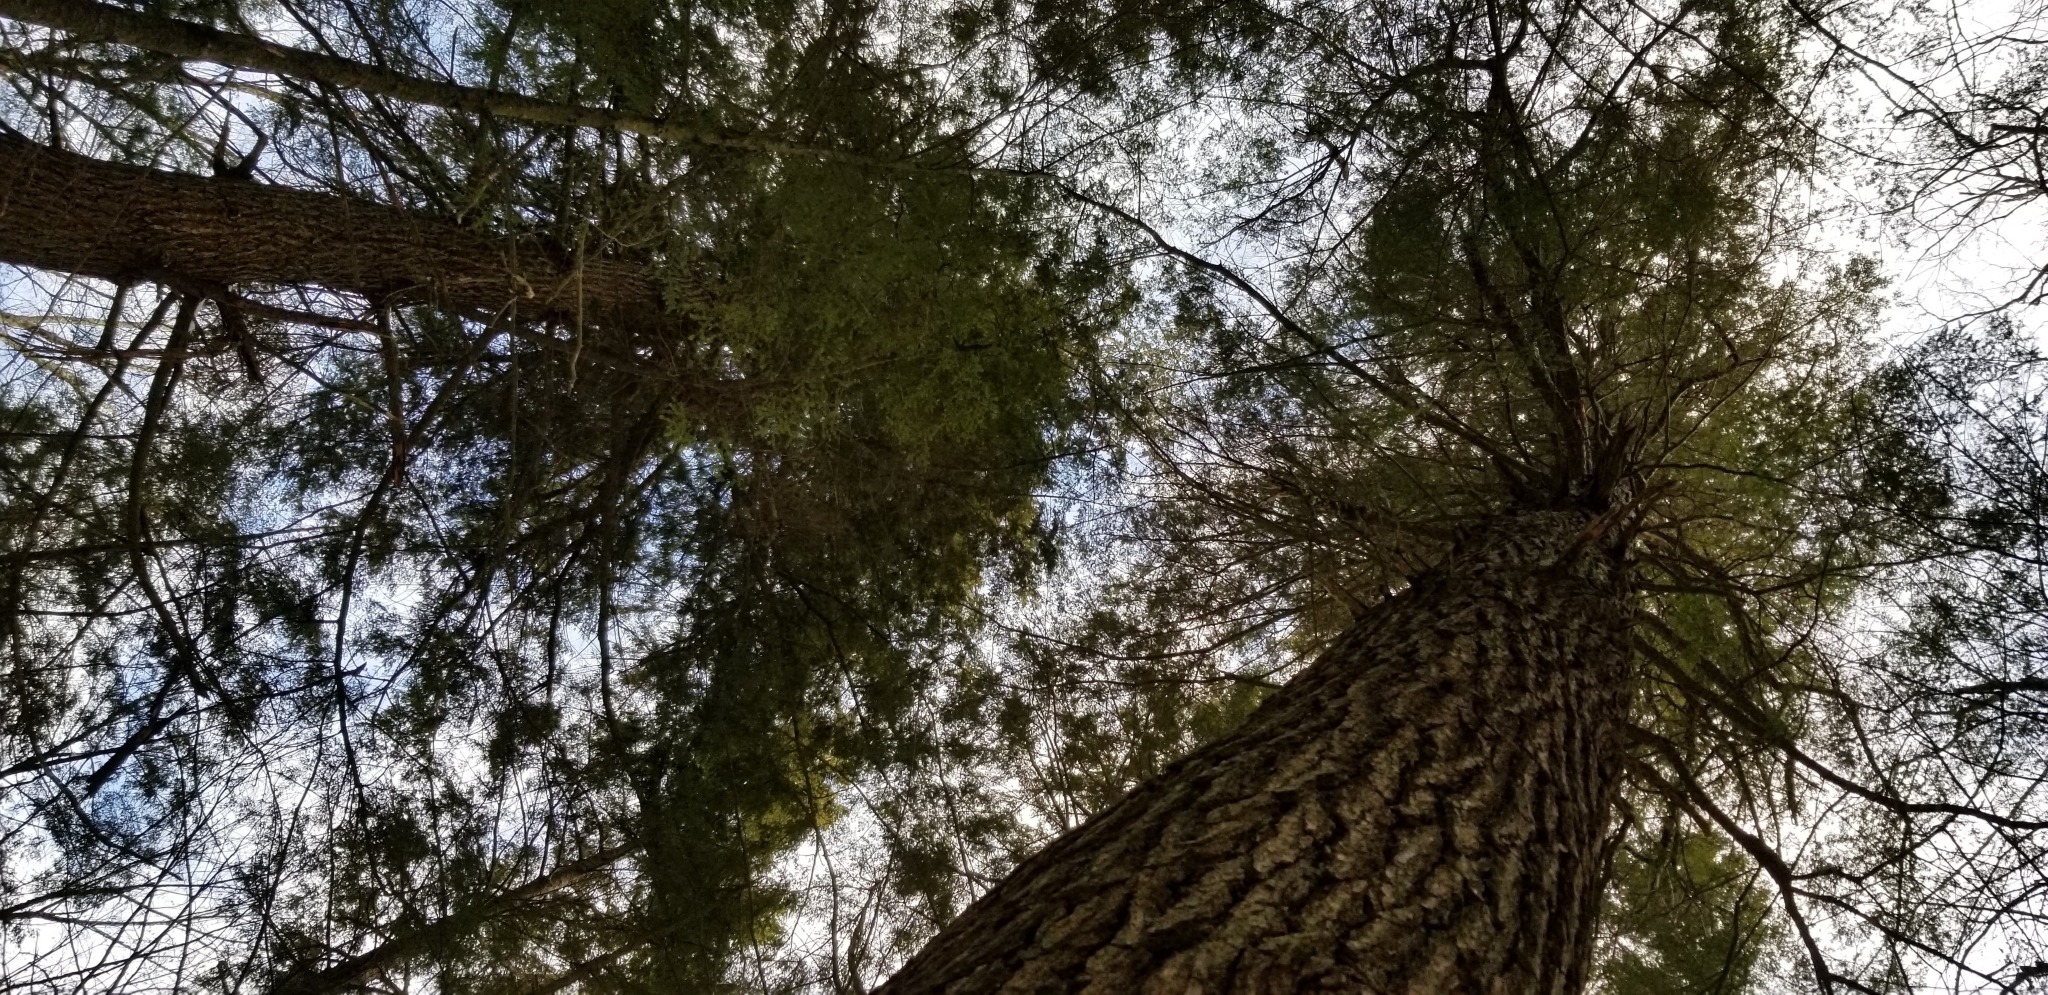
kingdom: Plantae
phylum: Tracheophyta
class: Pinopsida
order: Pinales
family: Pinaceae
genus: Tsuga
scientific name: Tsuga canadensis
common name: Eastern hemlock
